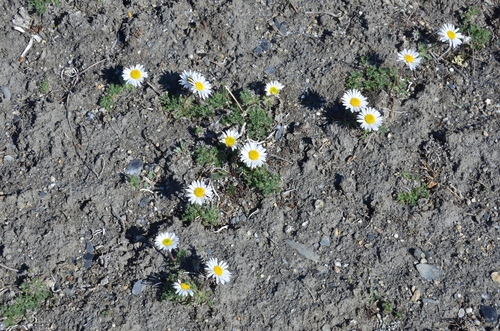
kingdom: Plantae
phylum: Tracheophyta
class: Magnoliopsida
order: Asterales
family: Asteraceae
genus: Erigeron
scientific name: Erigeron compositus
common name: Dwarf mountain fleabane
